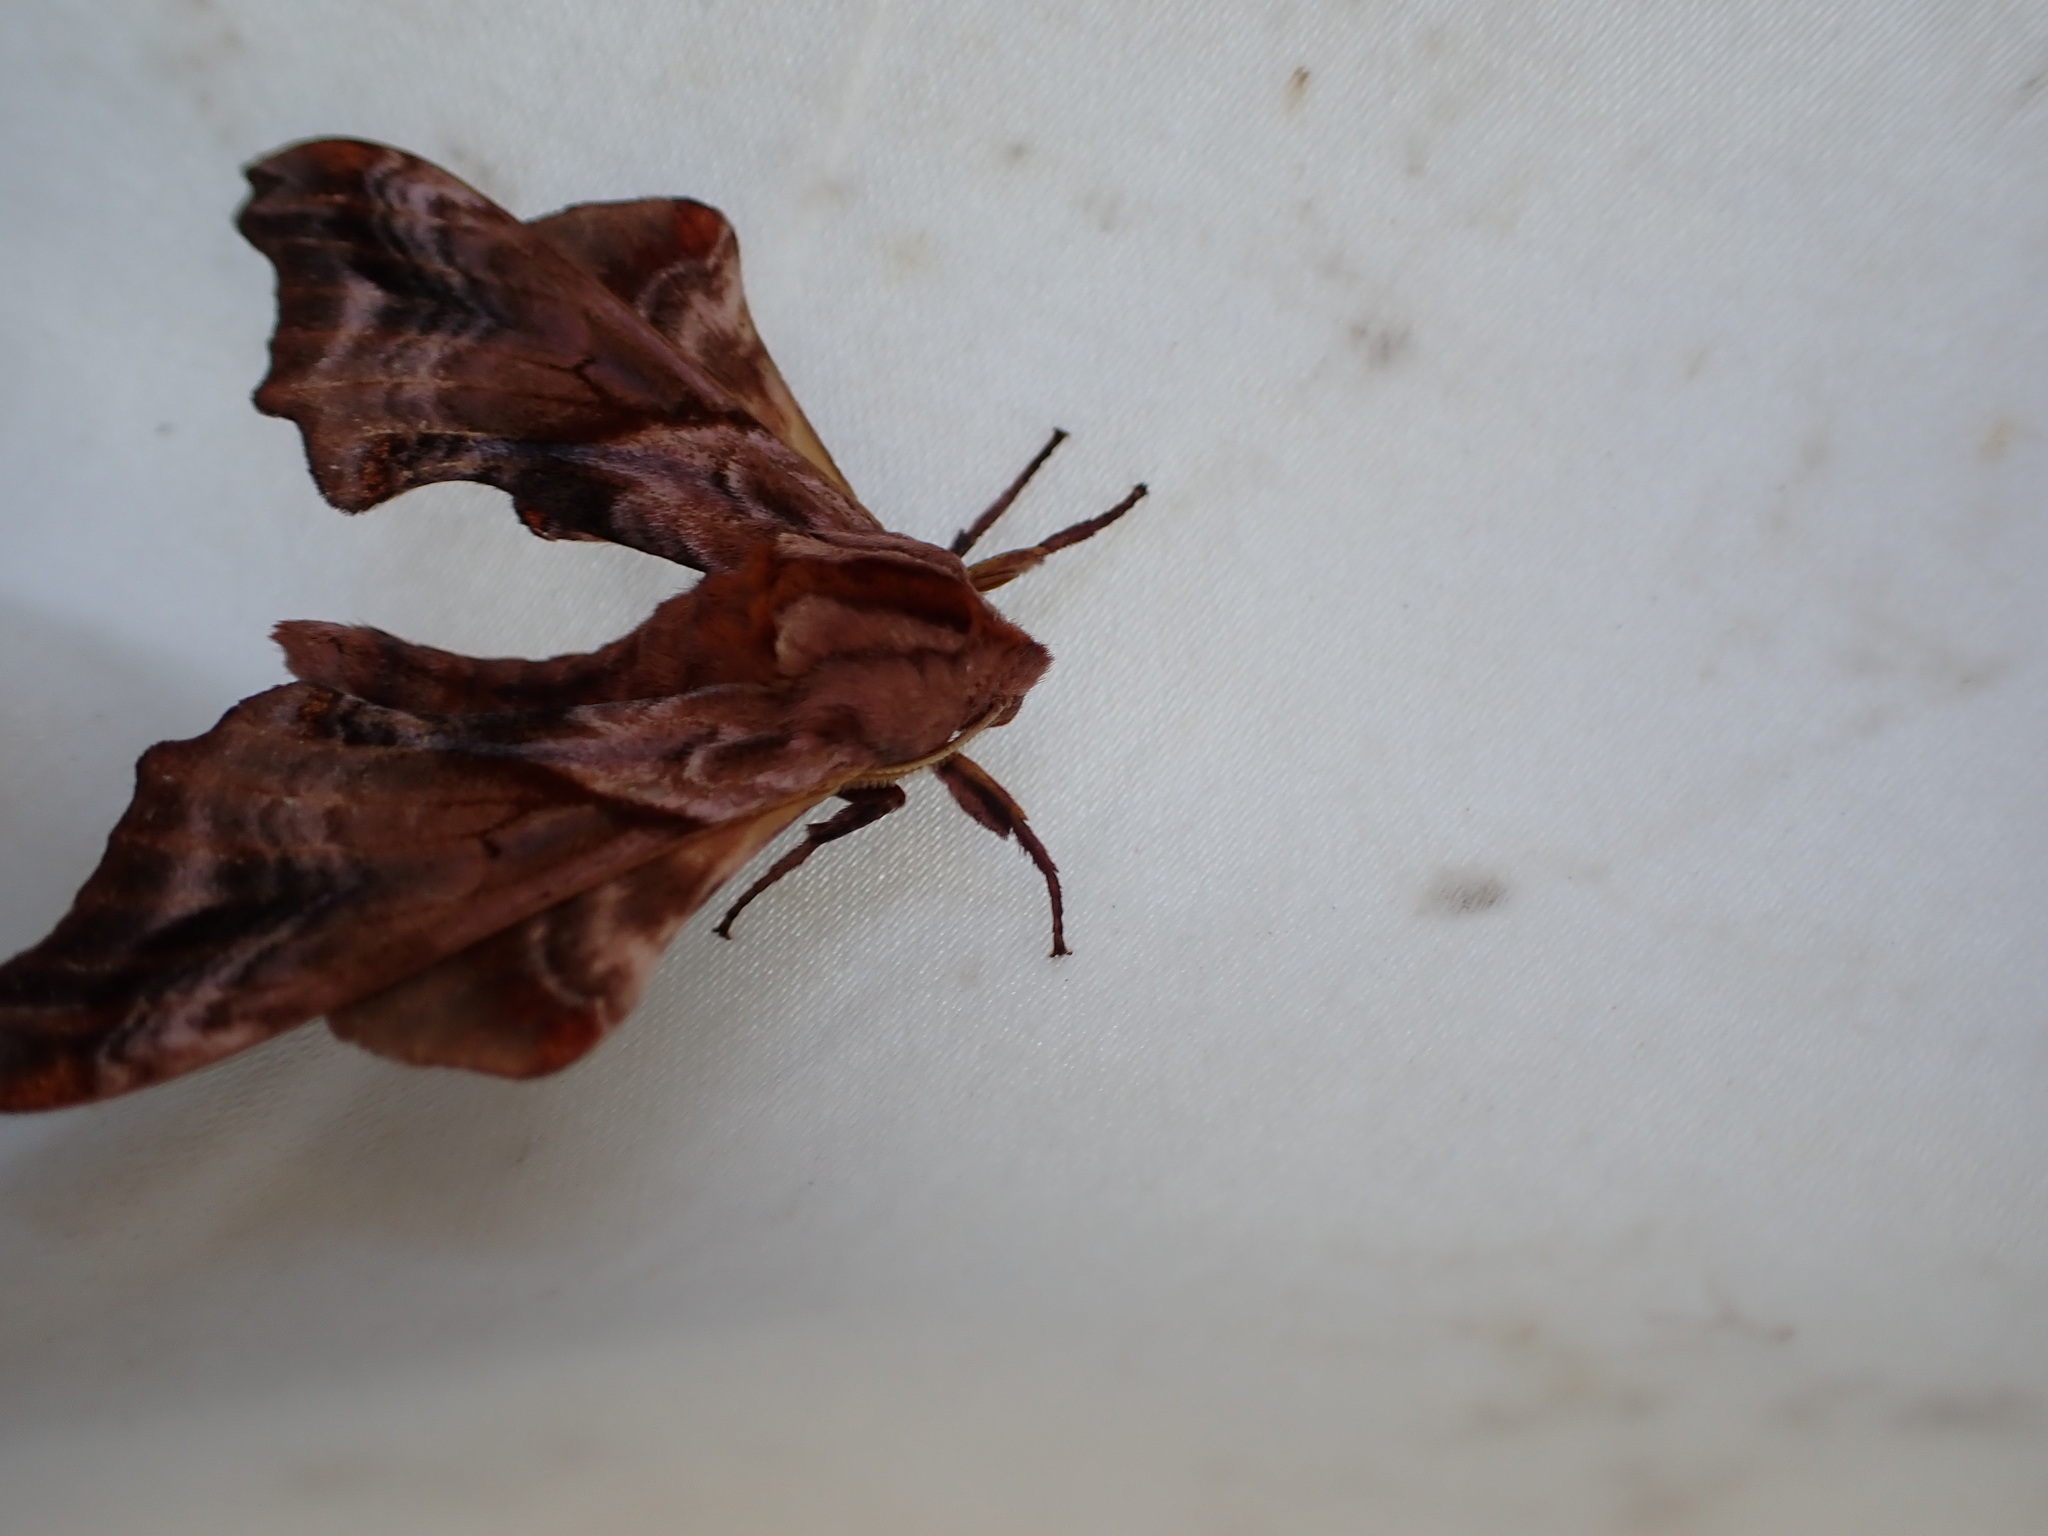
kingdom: Animalia
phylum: Arthropoda
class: Insecta
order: Lepidoptera
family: Sphingidae
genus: Paonias
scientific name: Paonias myops
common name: Small-eyed sphinx
